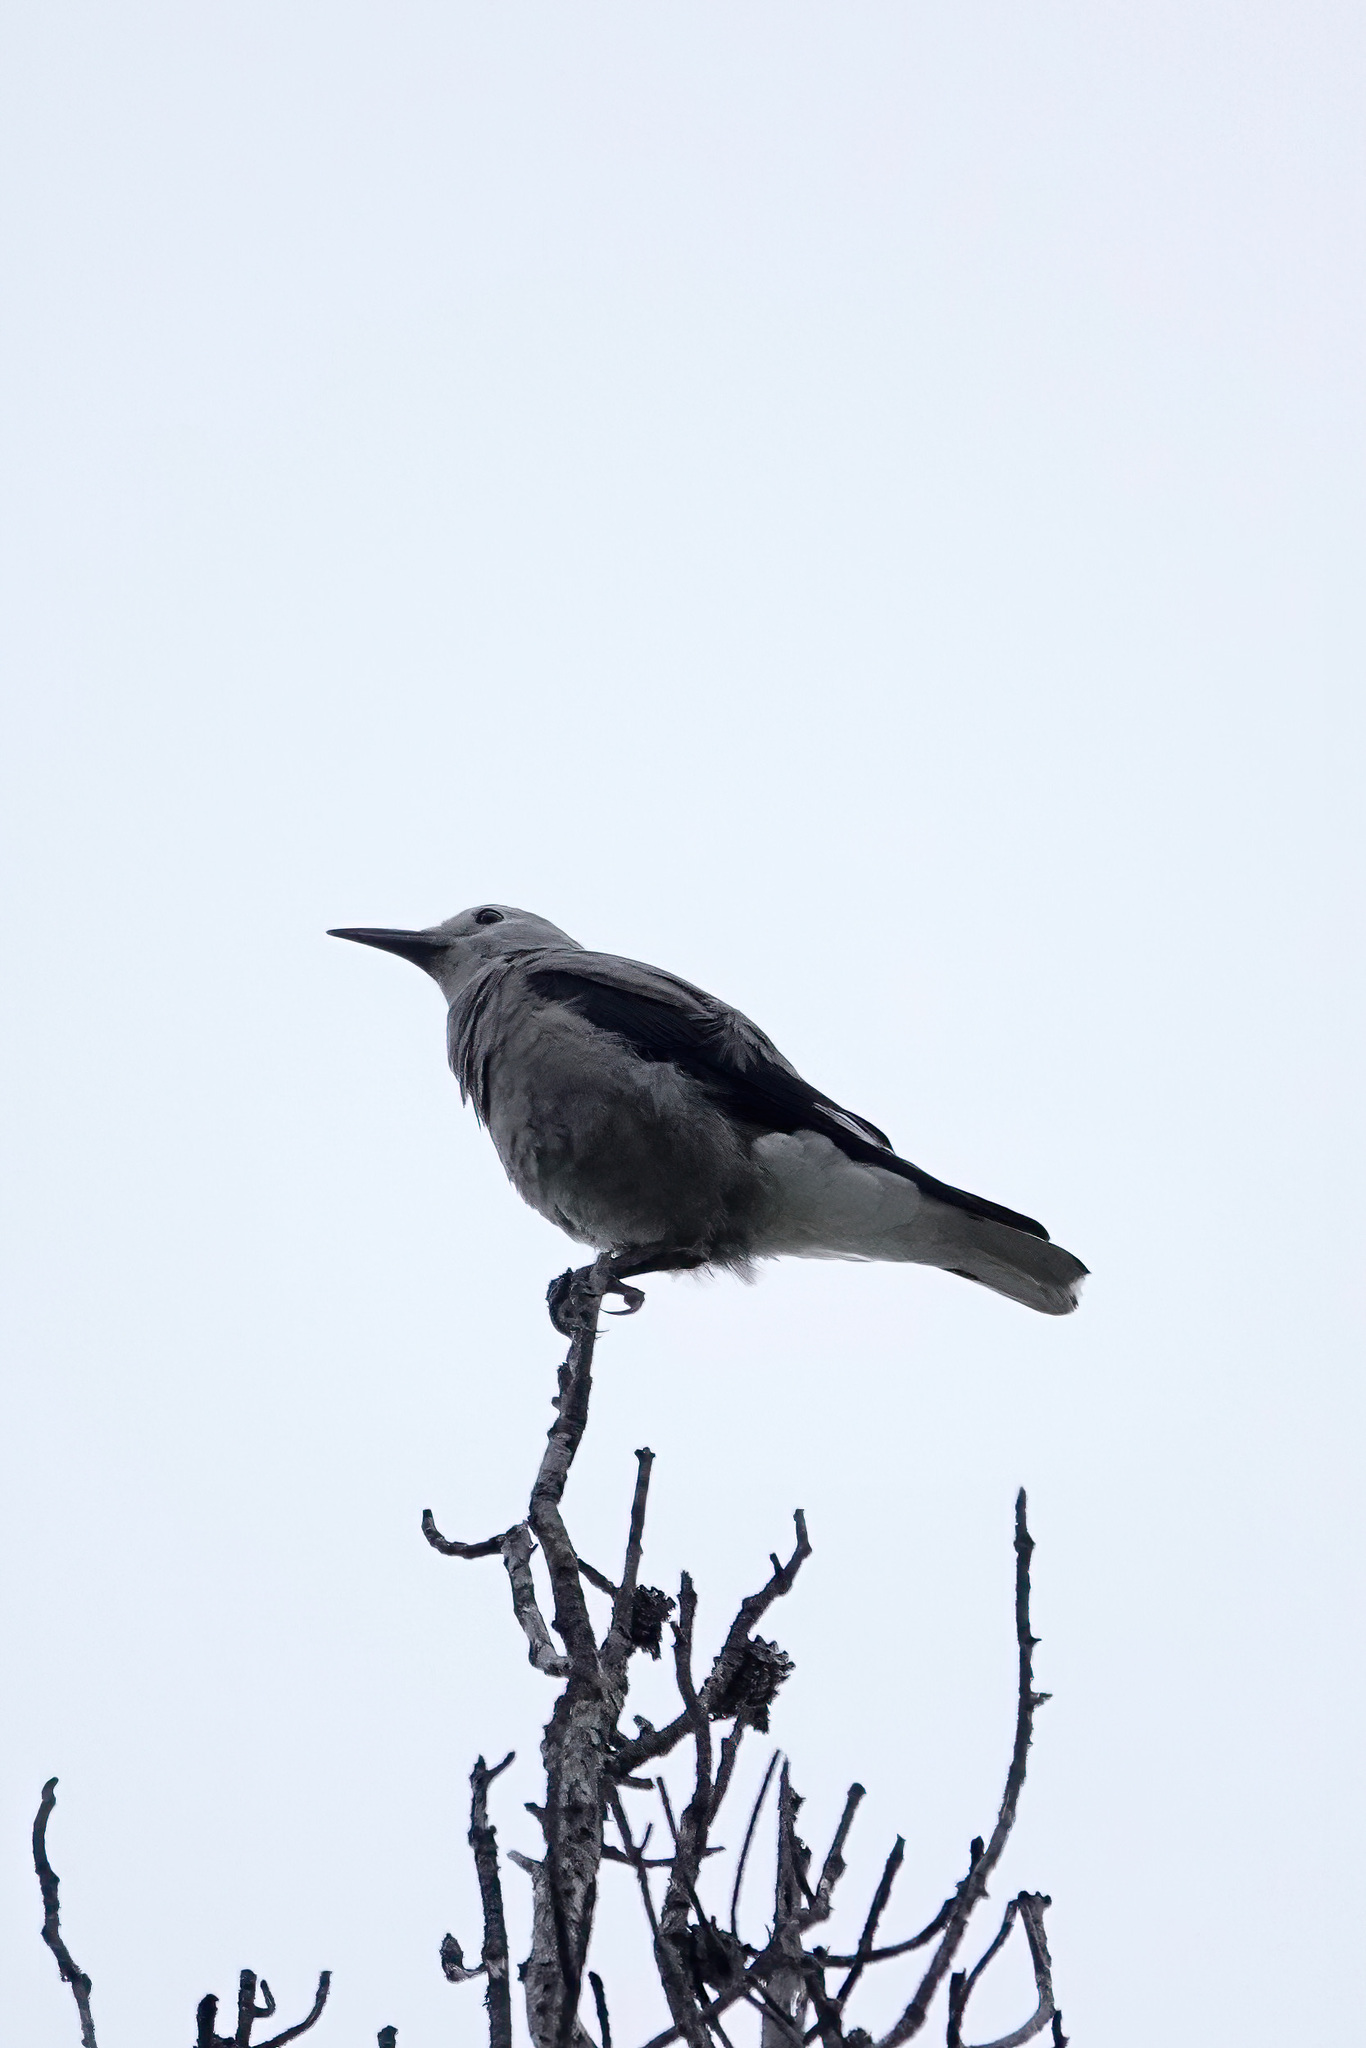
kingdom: Animalia
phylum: Chordata
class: Aves
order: Passeriformes
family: Corvidae
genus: Nucifraga
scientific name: Nucifraga columbiana
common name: Clark's nutcracker
